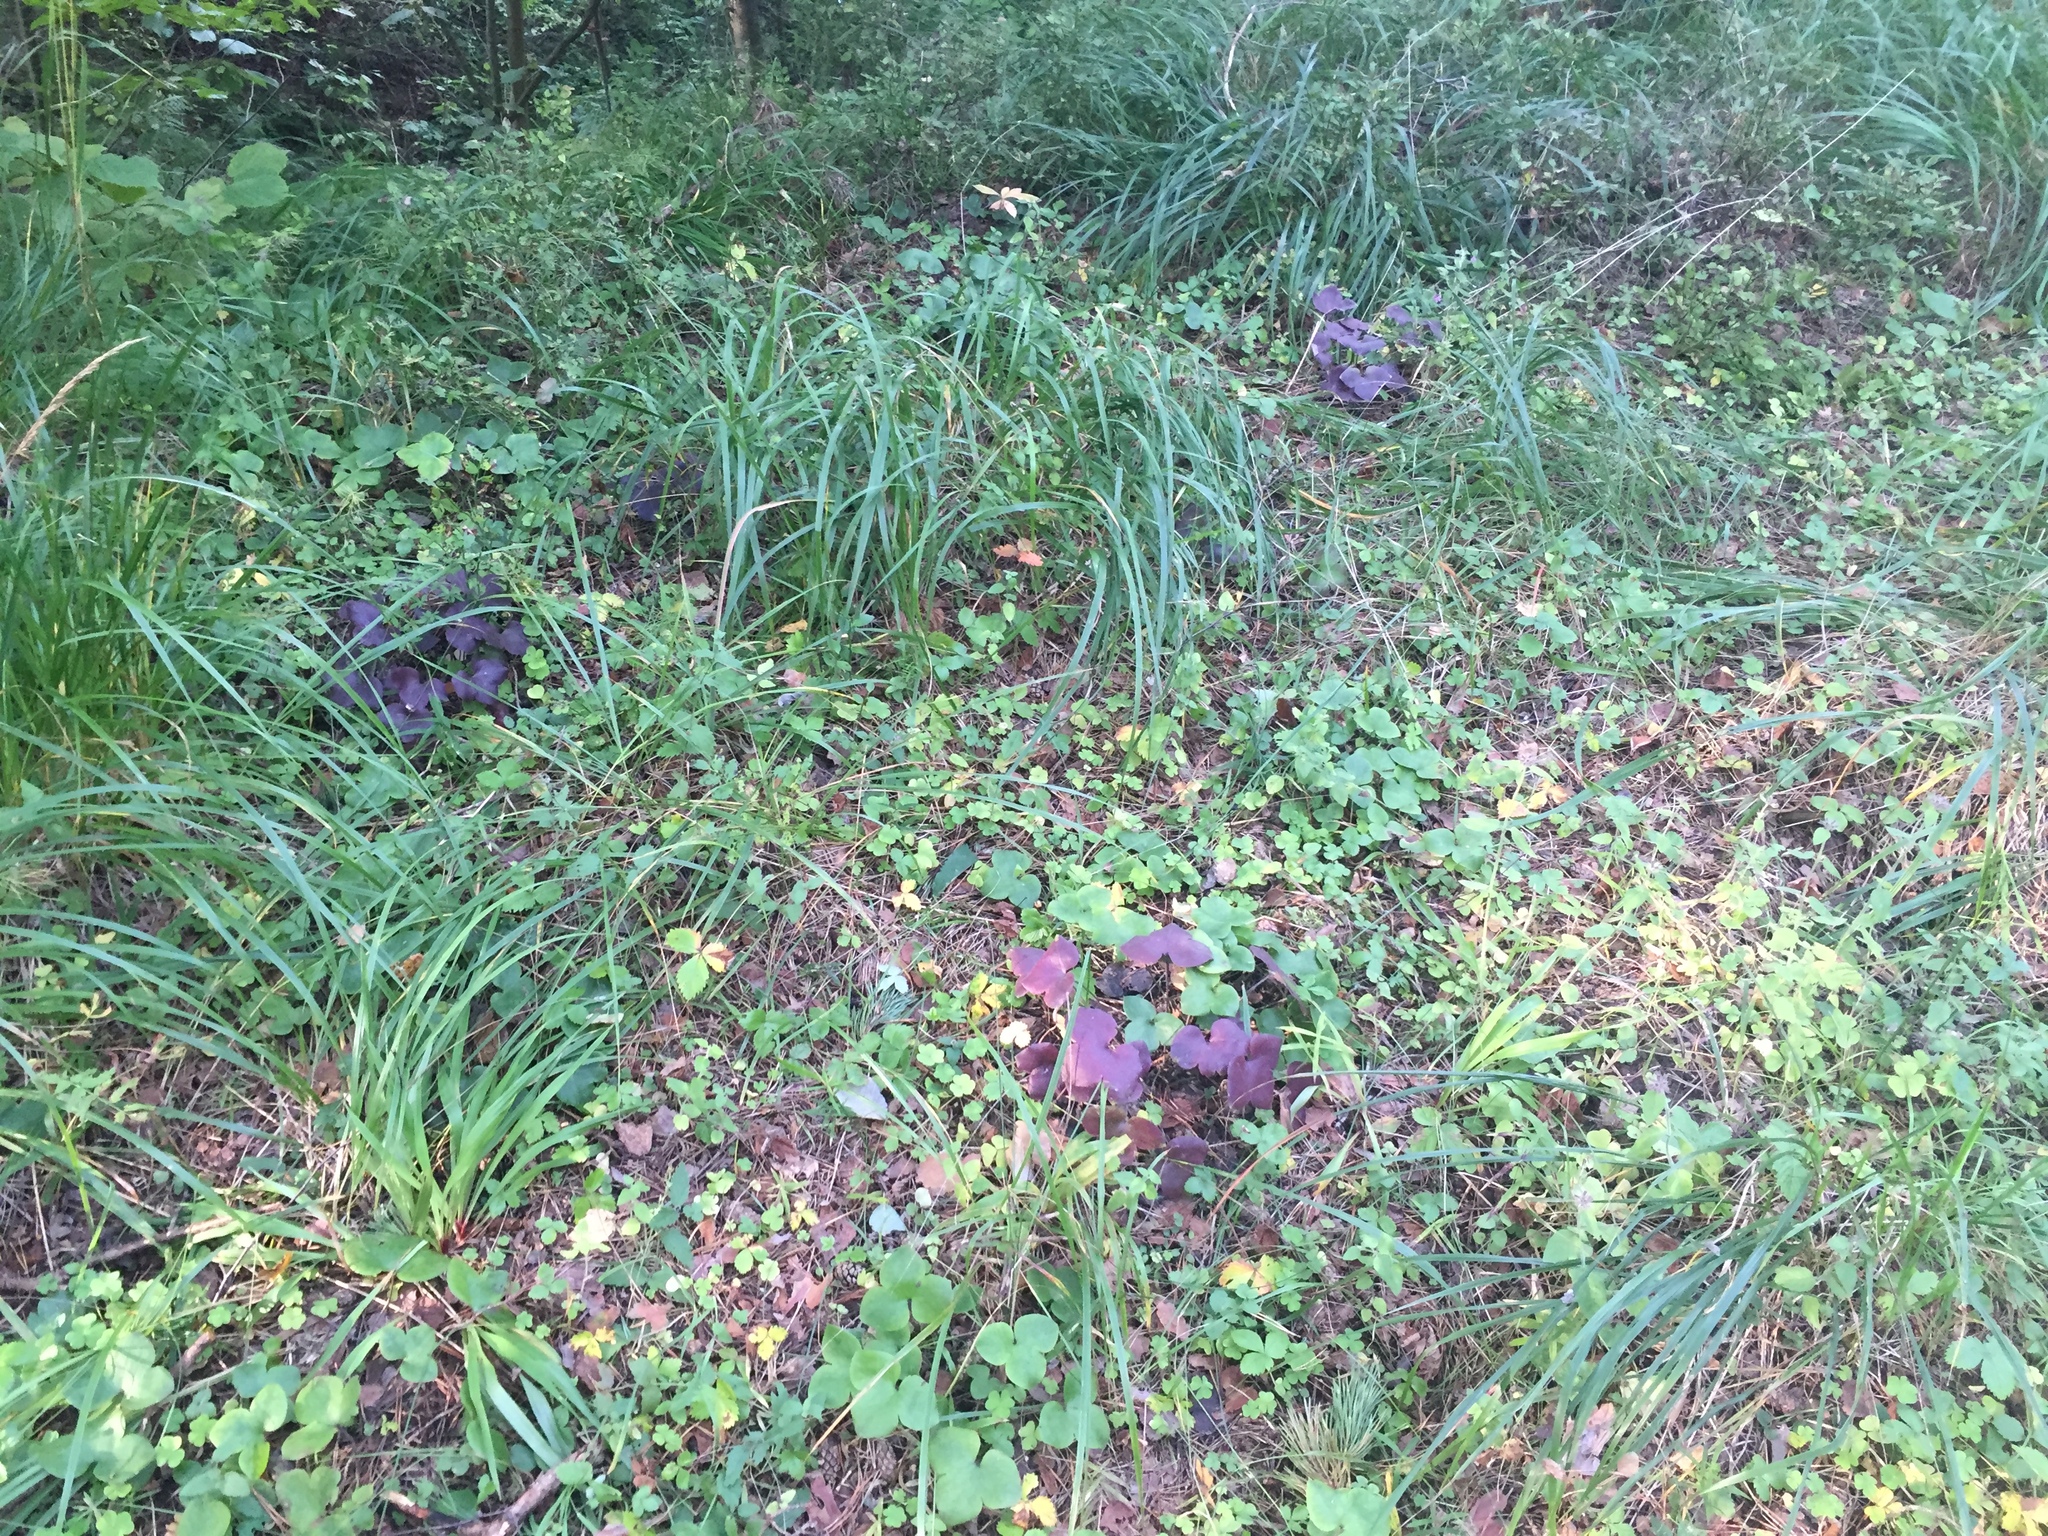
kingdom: Plantae
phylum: Tracheophyta
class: Magnoliopsida
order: Ranunculales
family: Ranunculaceae
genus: Hepatica
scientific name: Hepatica nobilis
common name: Liverleaf
